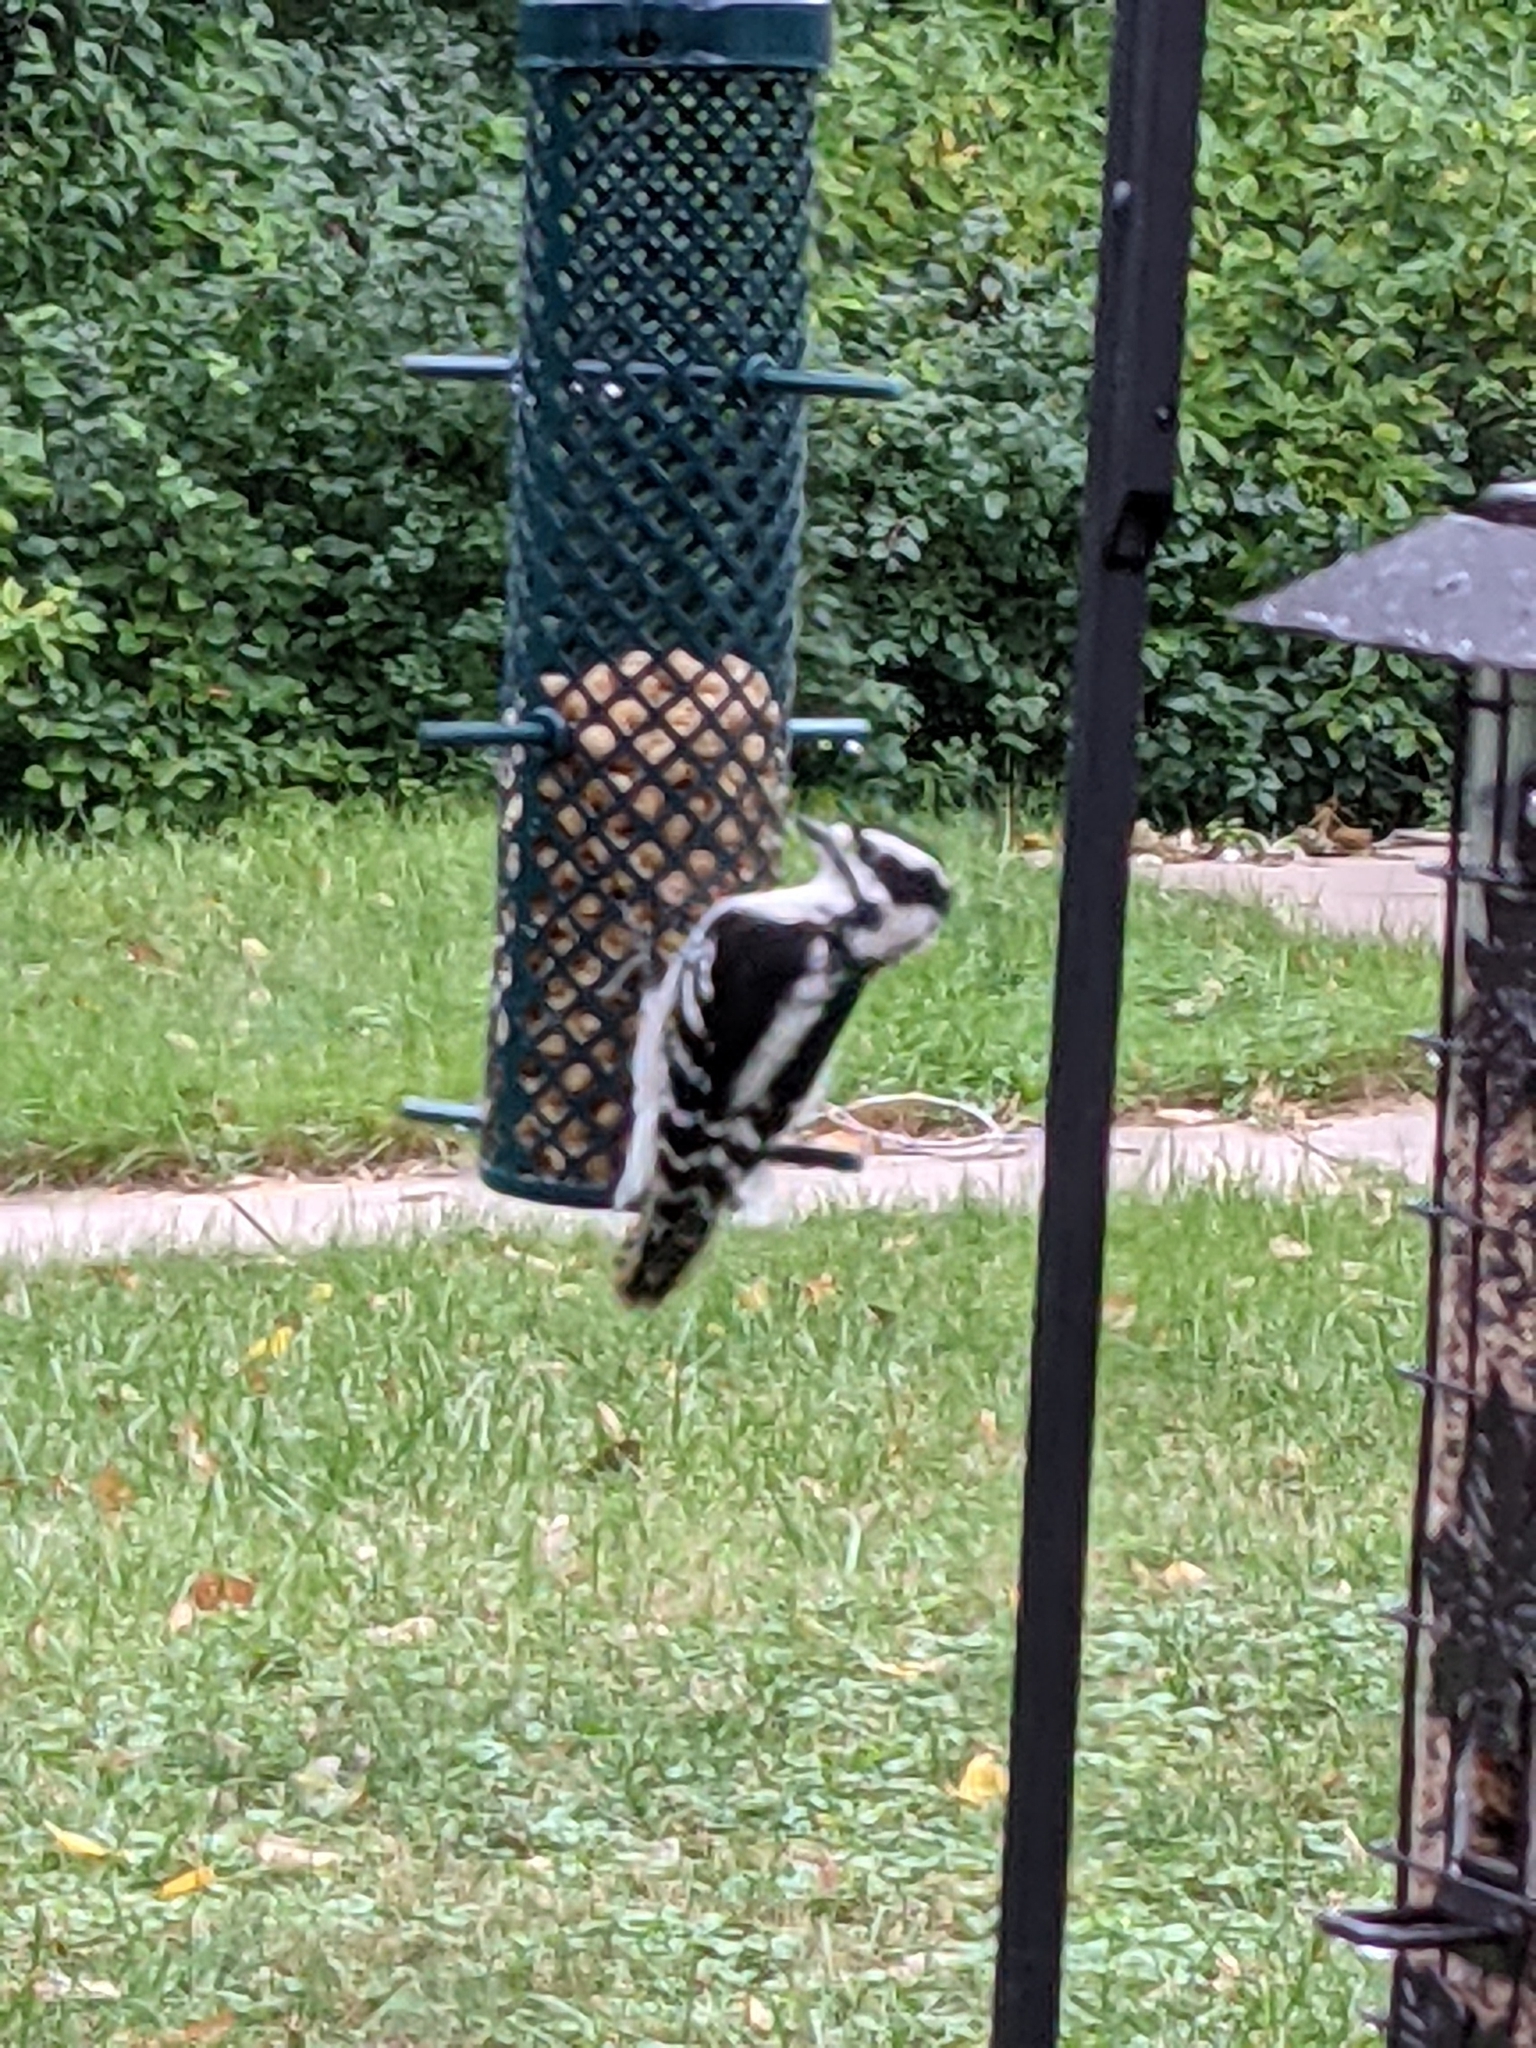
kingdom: Animalia
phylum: Chordata
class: Aves
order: Piciformes
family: Picidae
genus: Dryobates
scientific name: Dryobates pubescens
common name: Downy woodpecker
